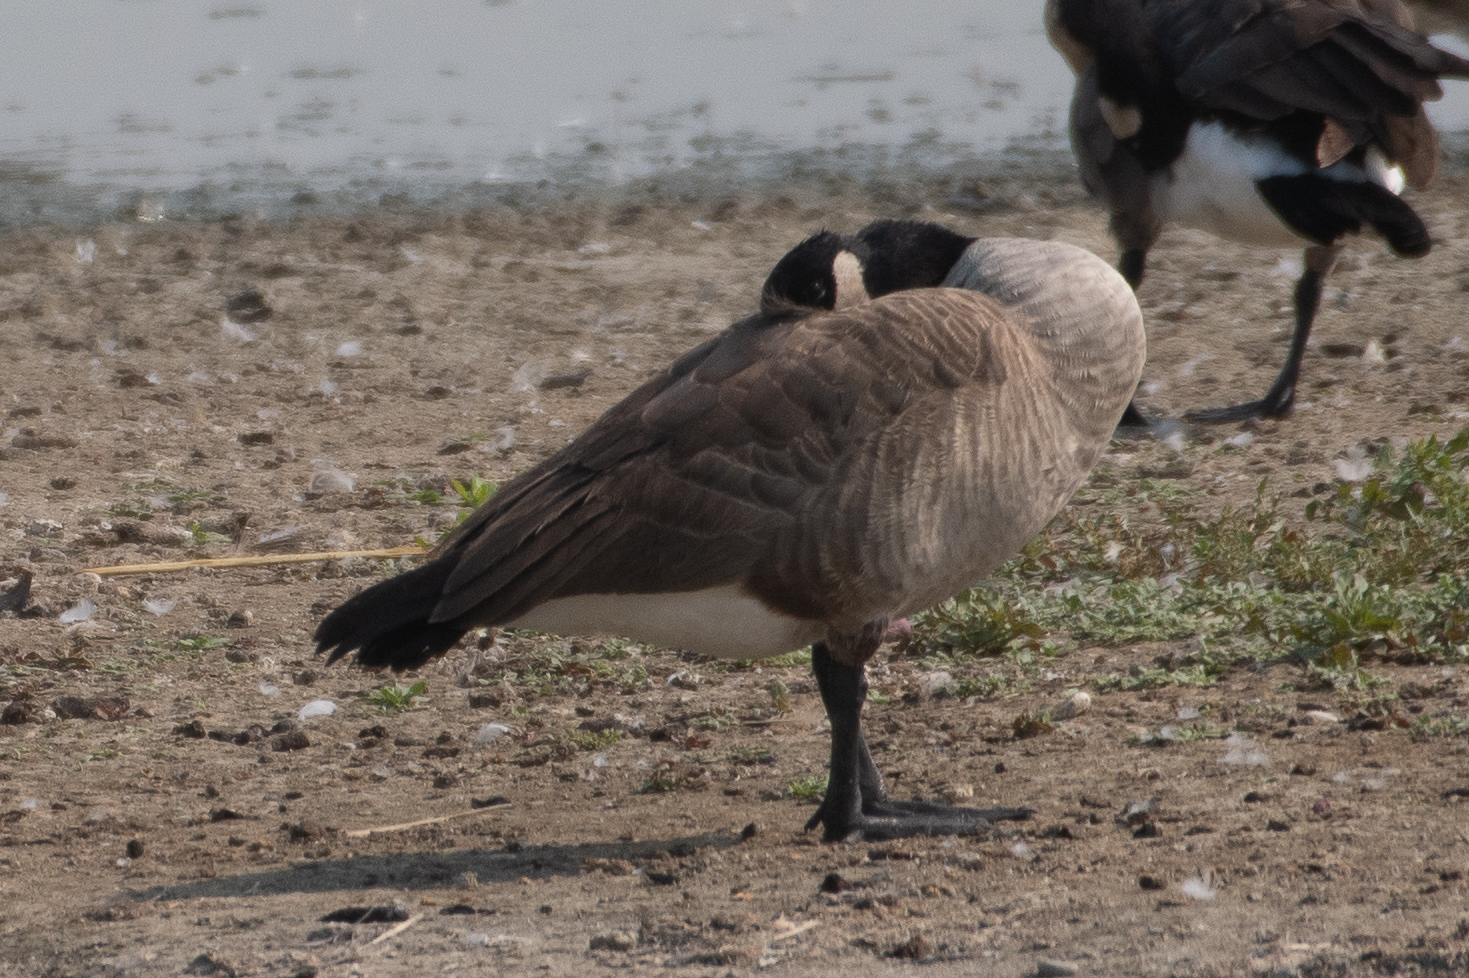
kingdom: Animalia
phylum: Chordata
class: Aves
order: Anseriformes
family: Anatidae
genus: Branta
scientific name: Branta canadensis
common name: Canada goose
